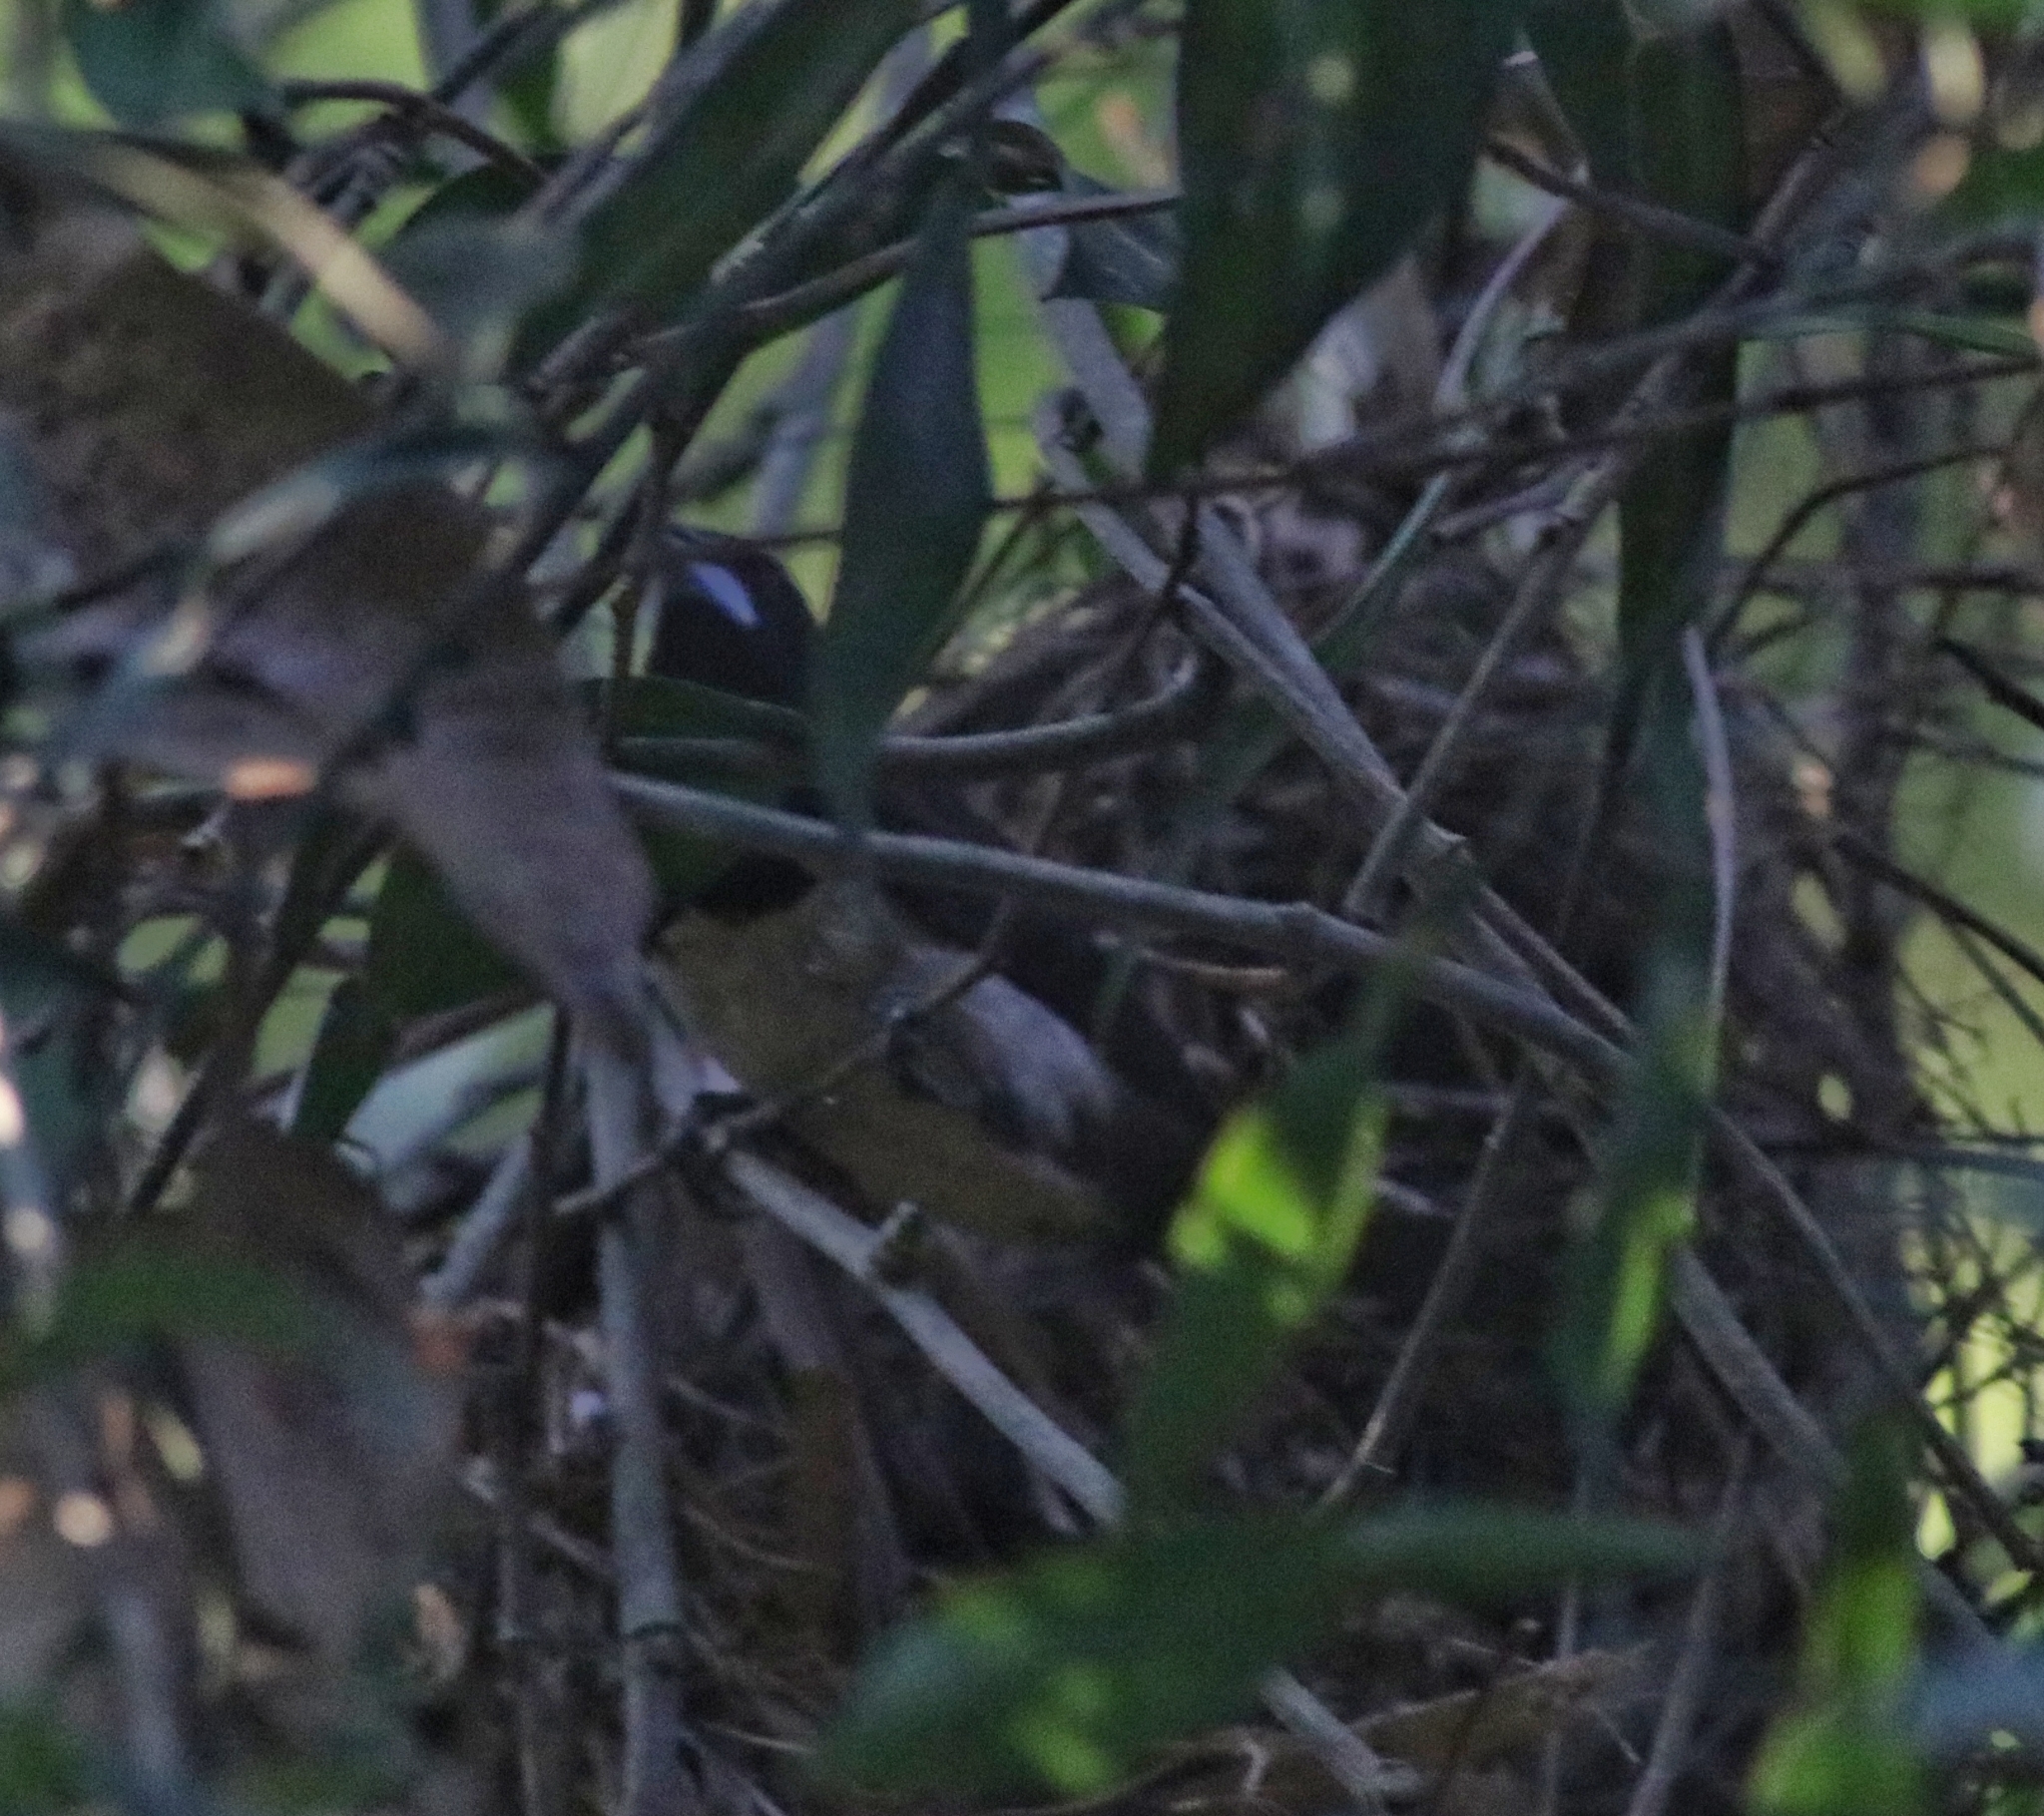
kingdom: Animalia
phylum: Chordata
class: Aves
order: Passeriformes
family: Estrildidae
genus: Lonchura
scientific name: Lonchura striata
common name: White-rumped munia
